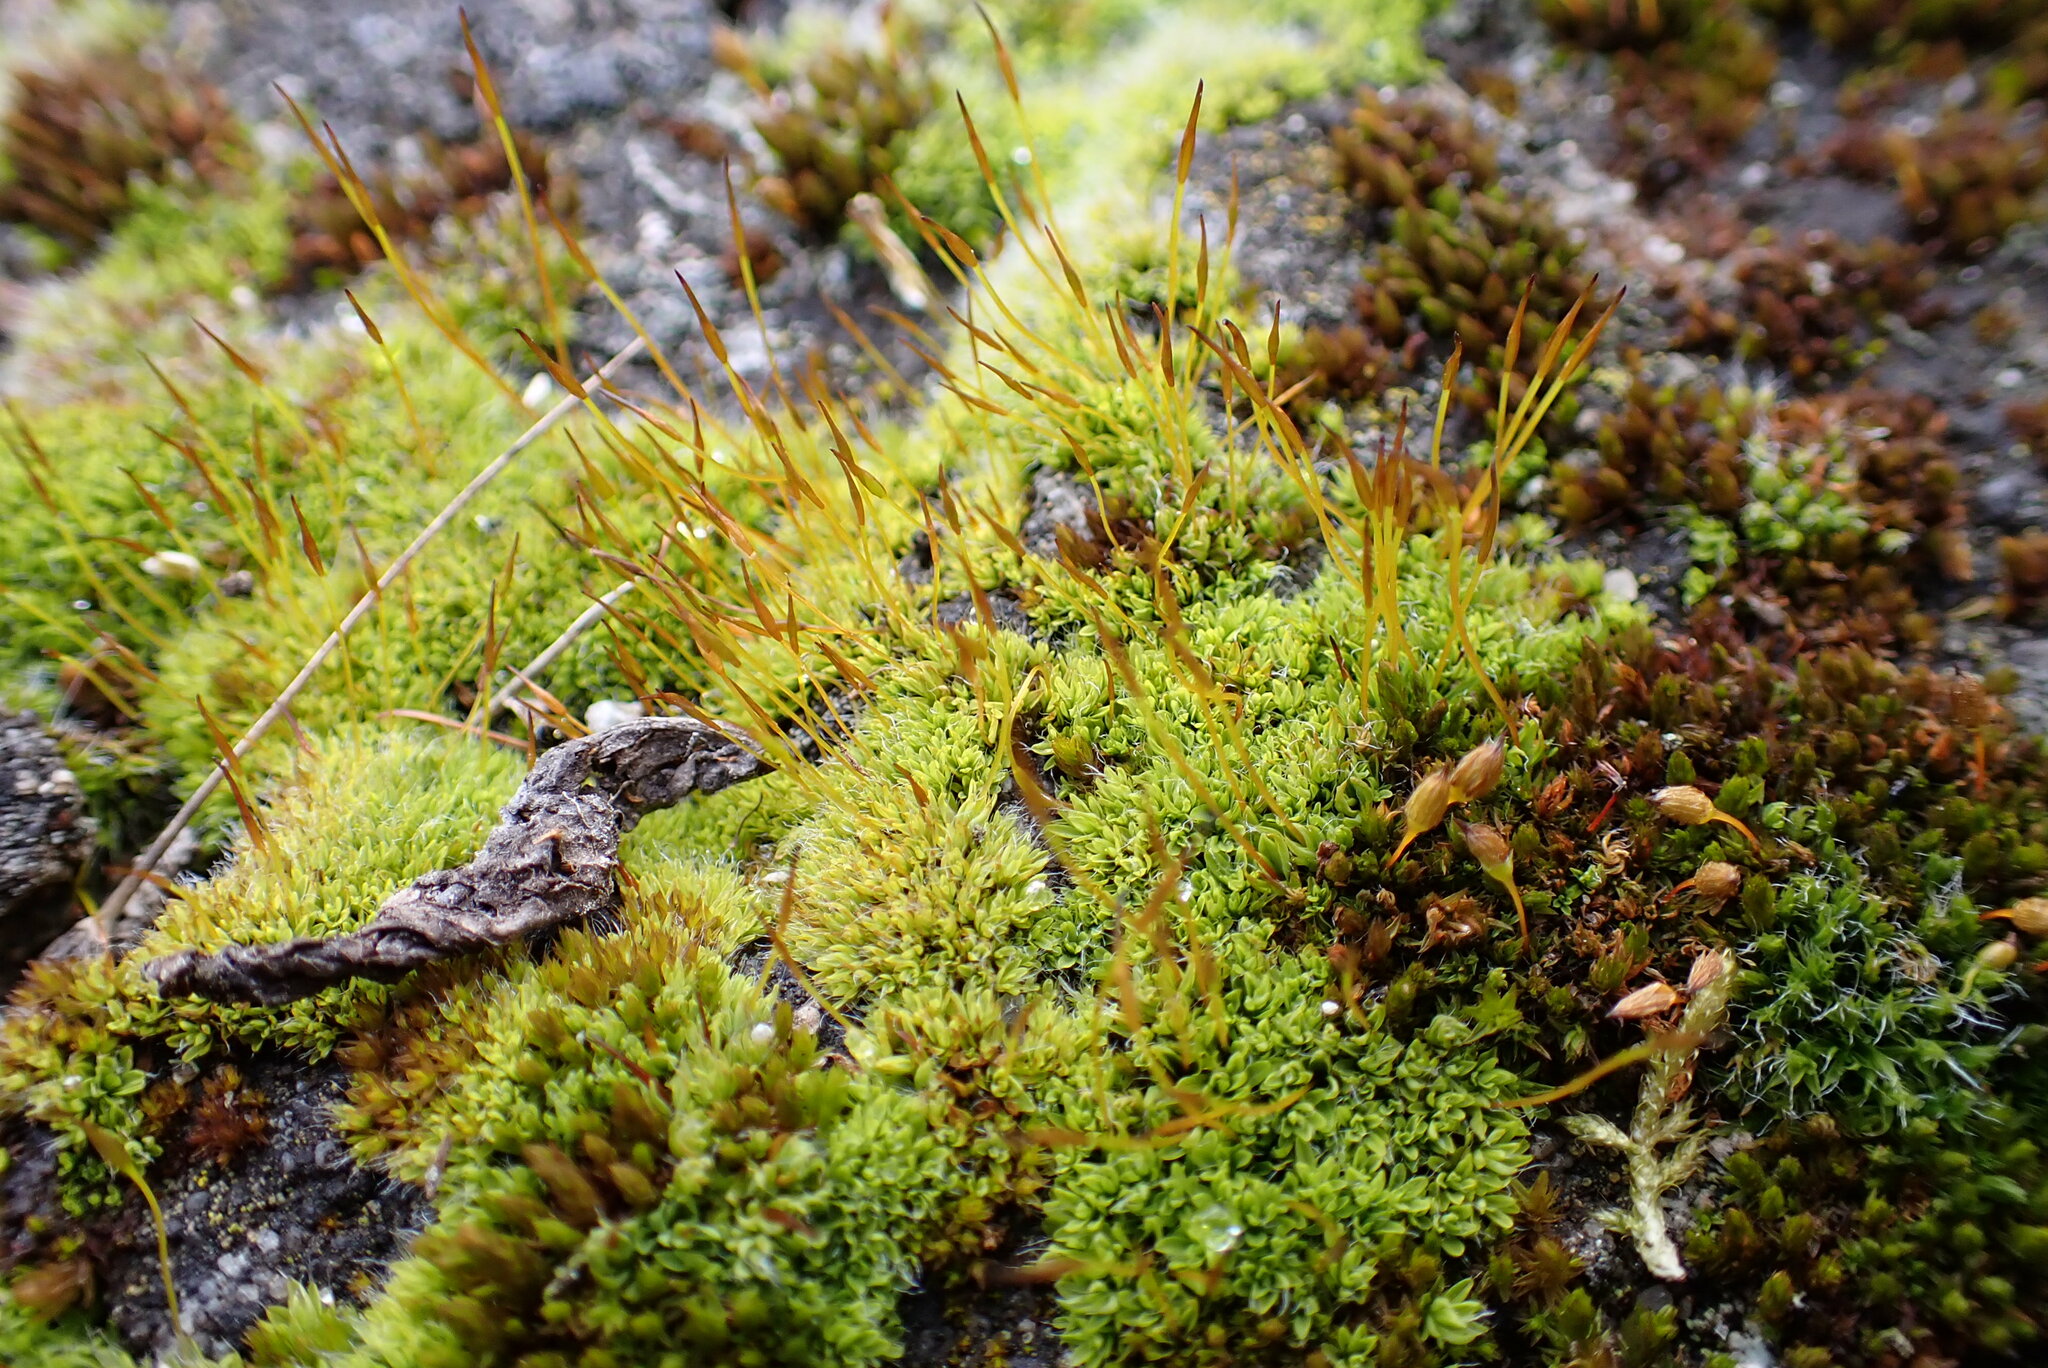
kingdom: Plantae
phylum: Bryophyta
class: Bryopsida
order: Pottiales
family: Pottiaceae
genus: Tortula
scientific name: Tortula muralis
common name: Wall screw-moss
